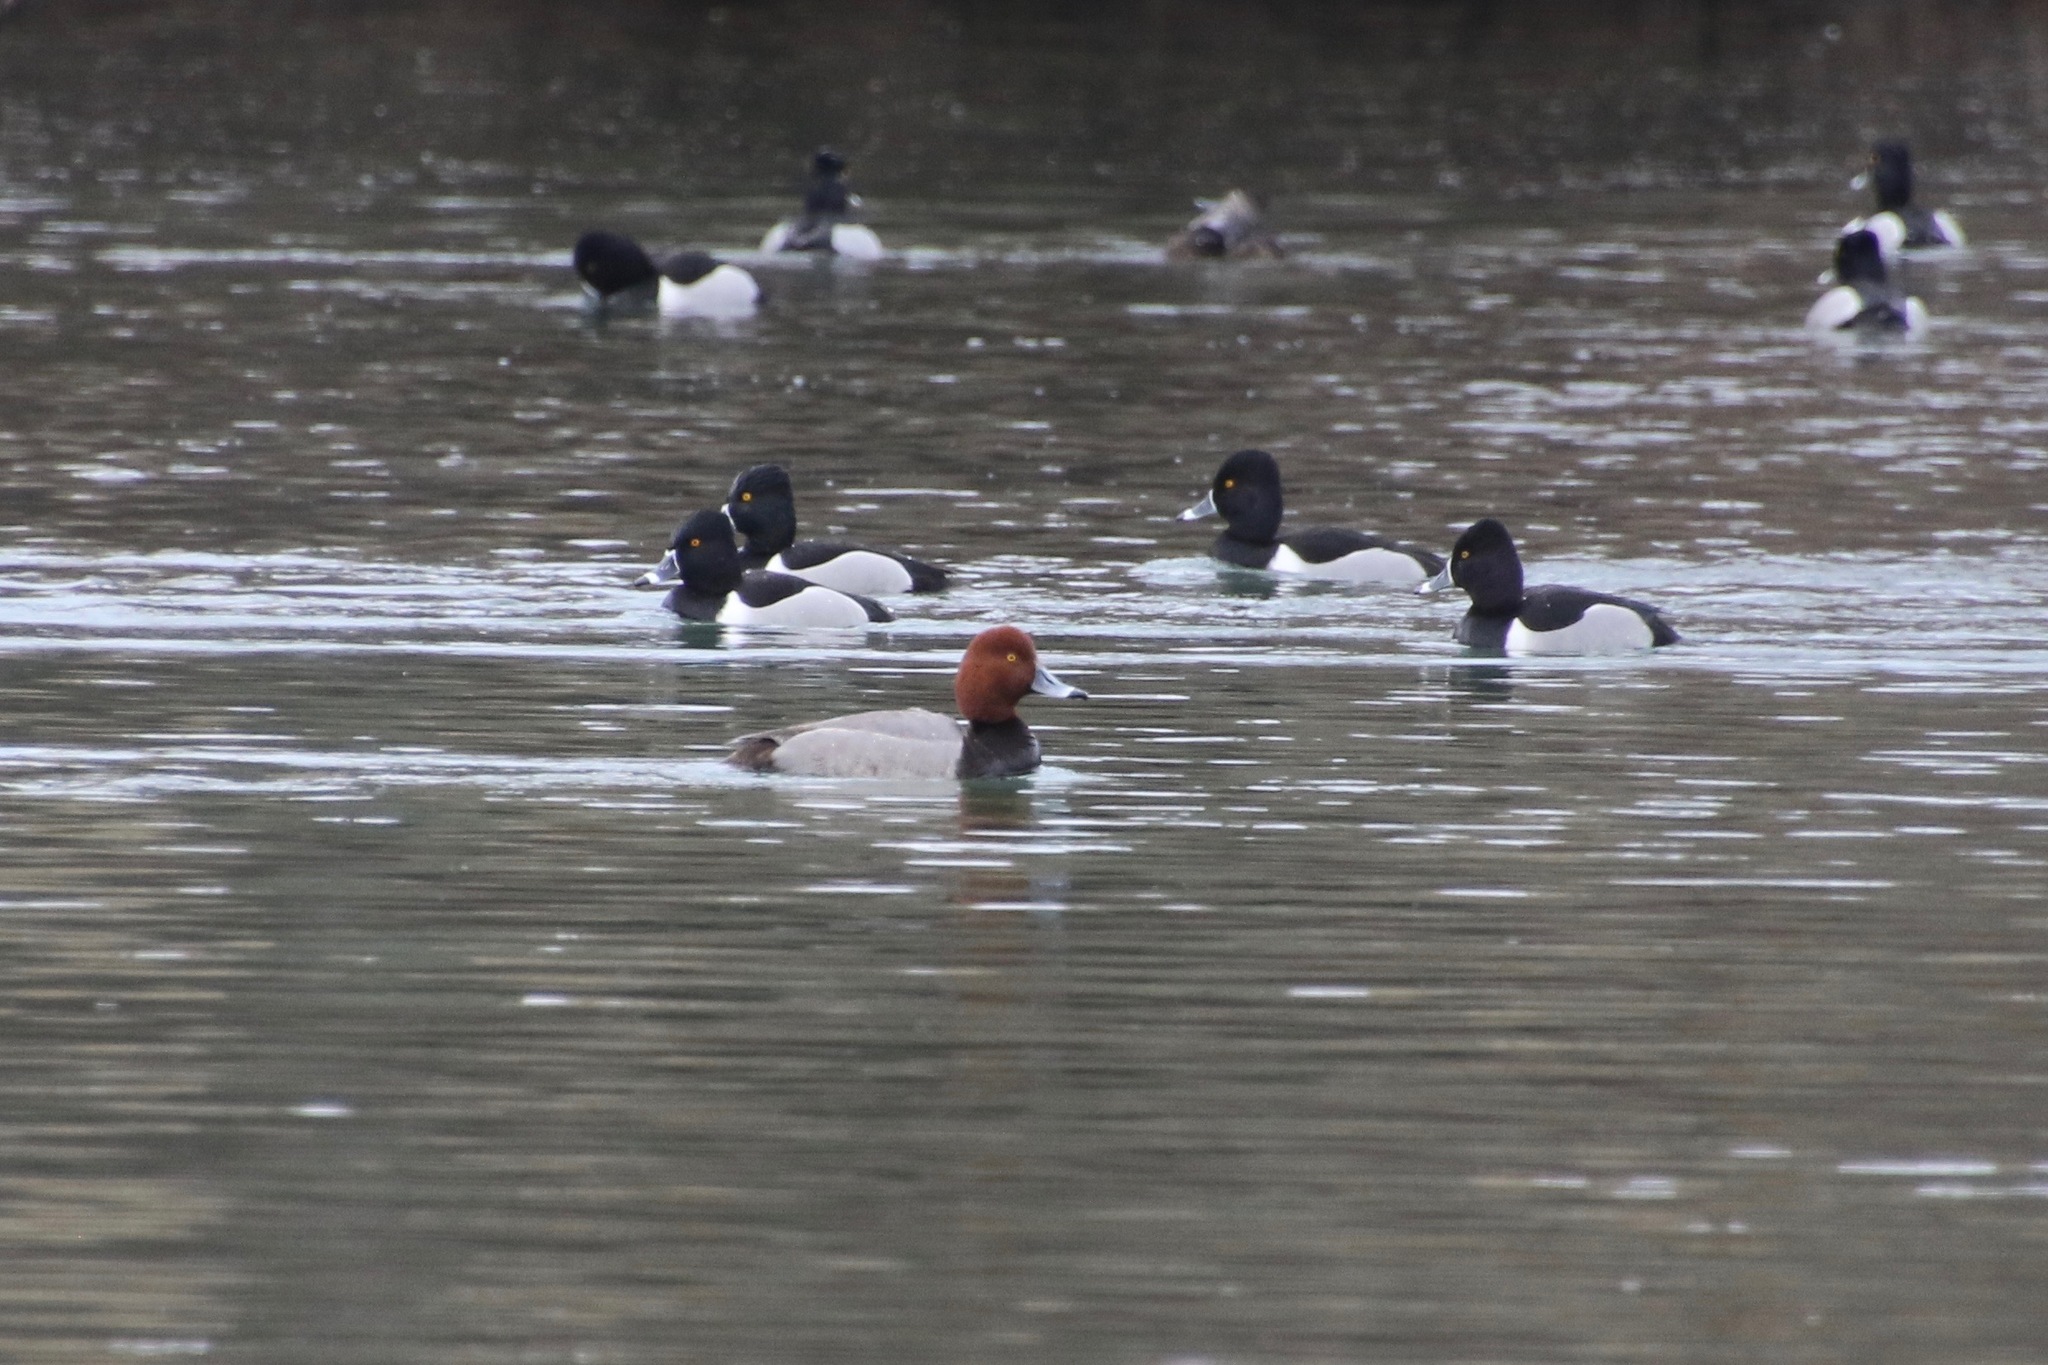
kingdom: Animalia
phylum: Chordata
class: Aves
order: Anseriformes
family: Anatidae
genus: Aythya
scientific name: Aythya collaris
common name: Ring-necked duck
